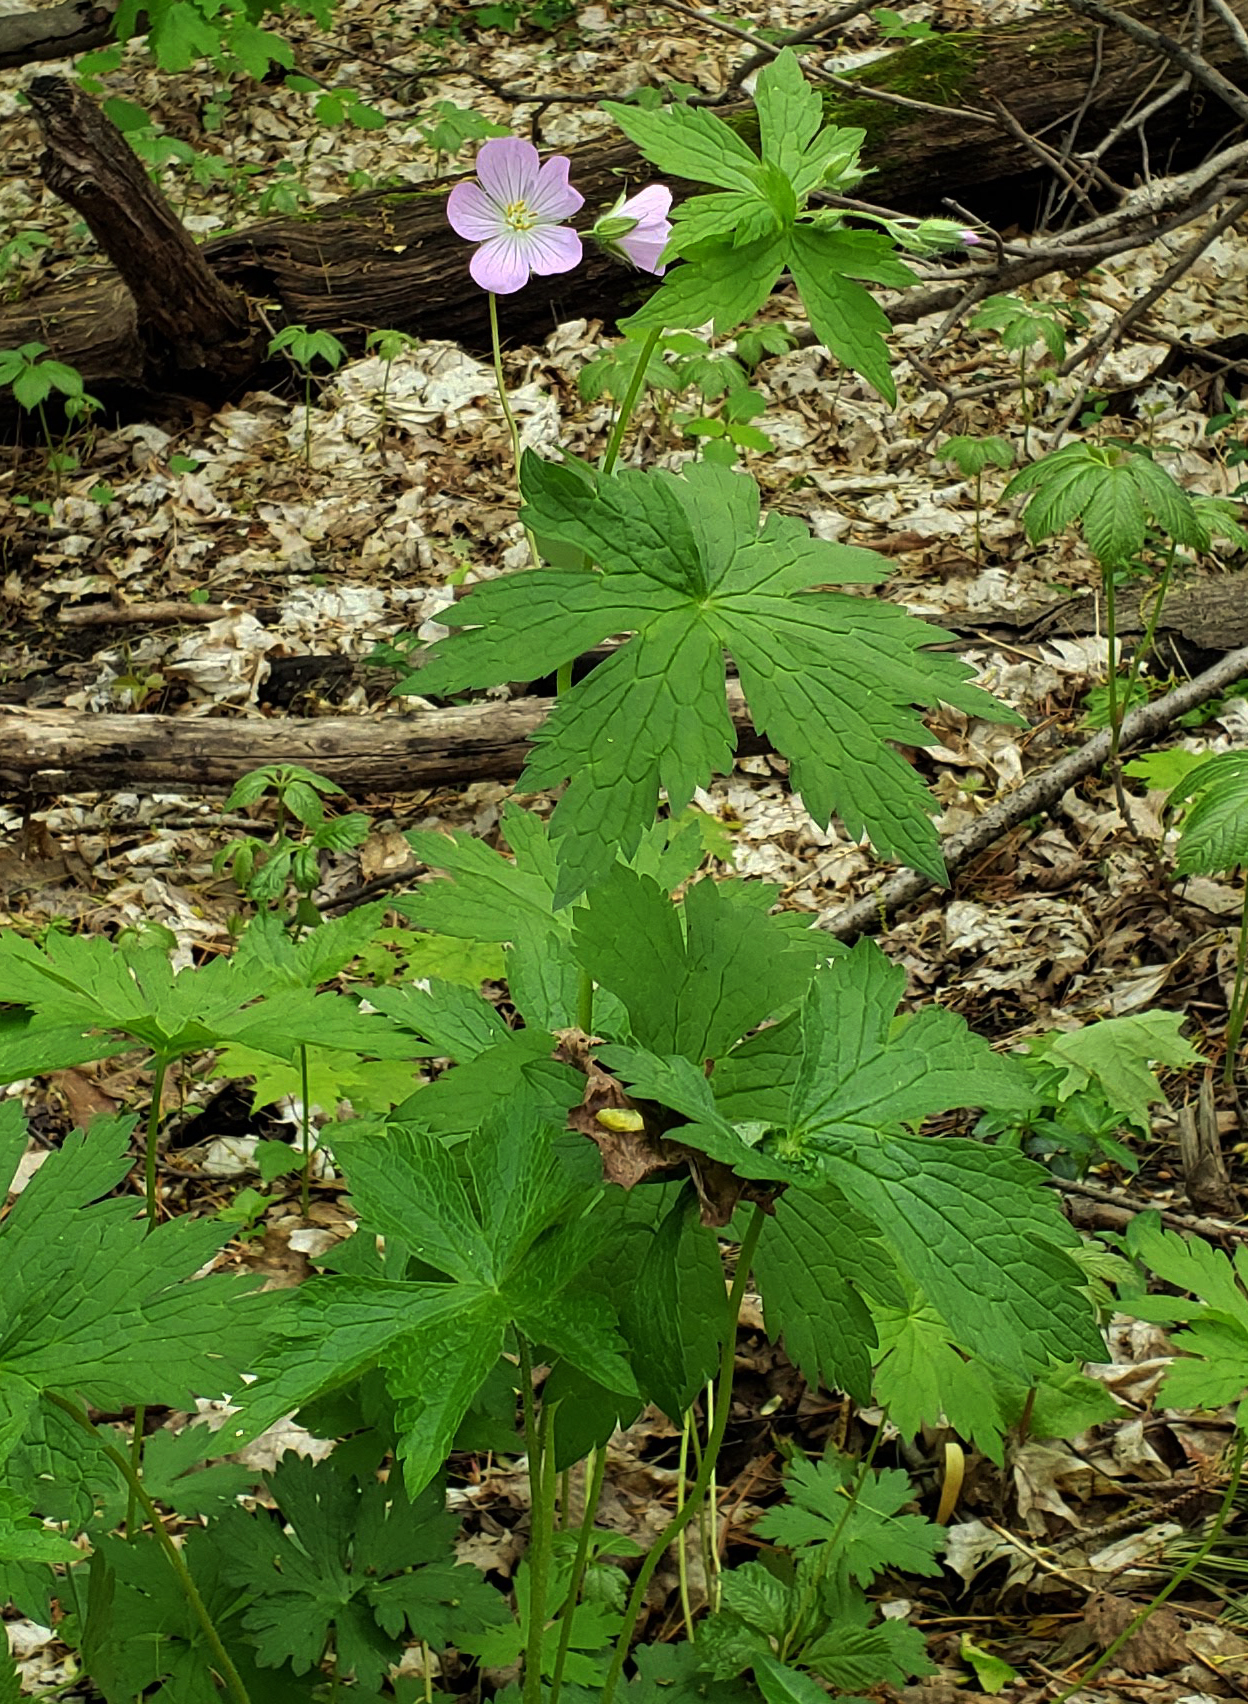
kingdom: Plantae
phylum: Tracheophyta
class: Magnoliopsida
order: Geraniales
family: Geraniaceae
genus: Geranium
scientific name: Geranium maculatum
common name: Spotted geranium
